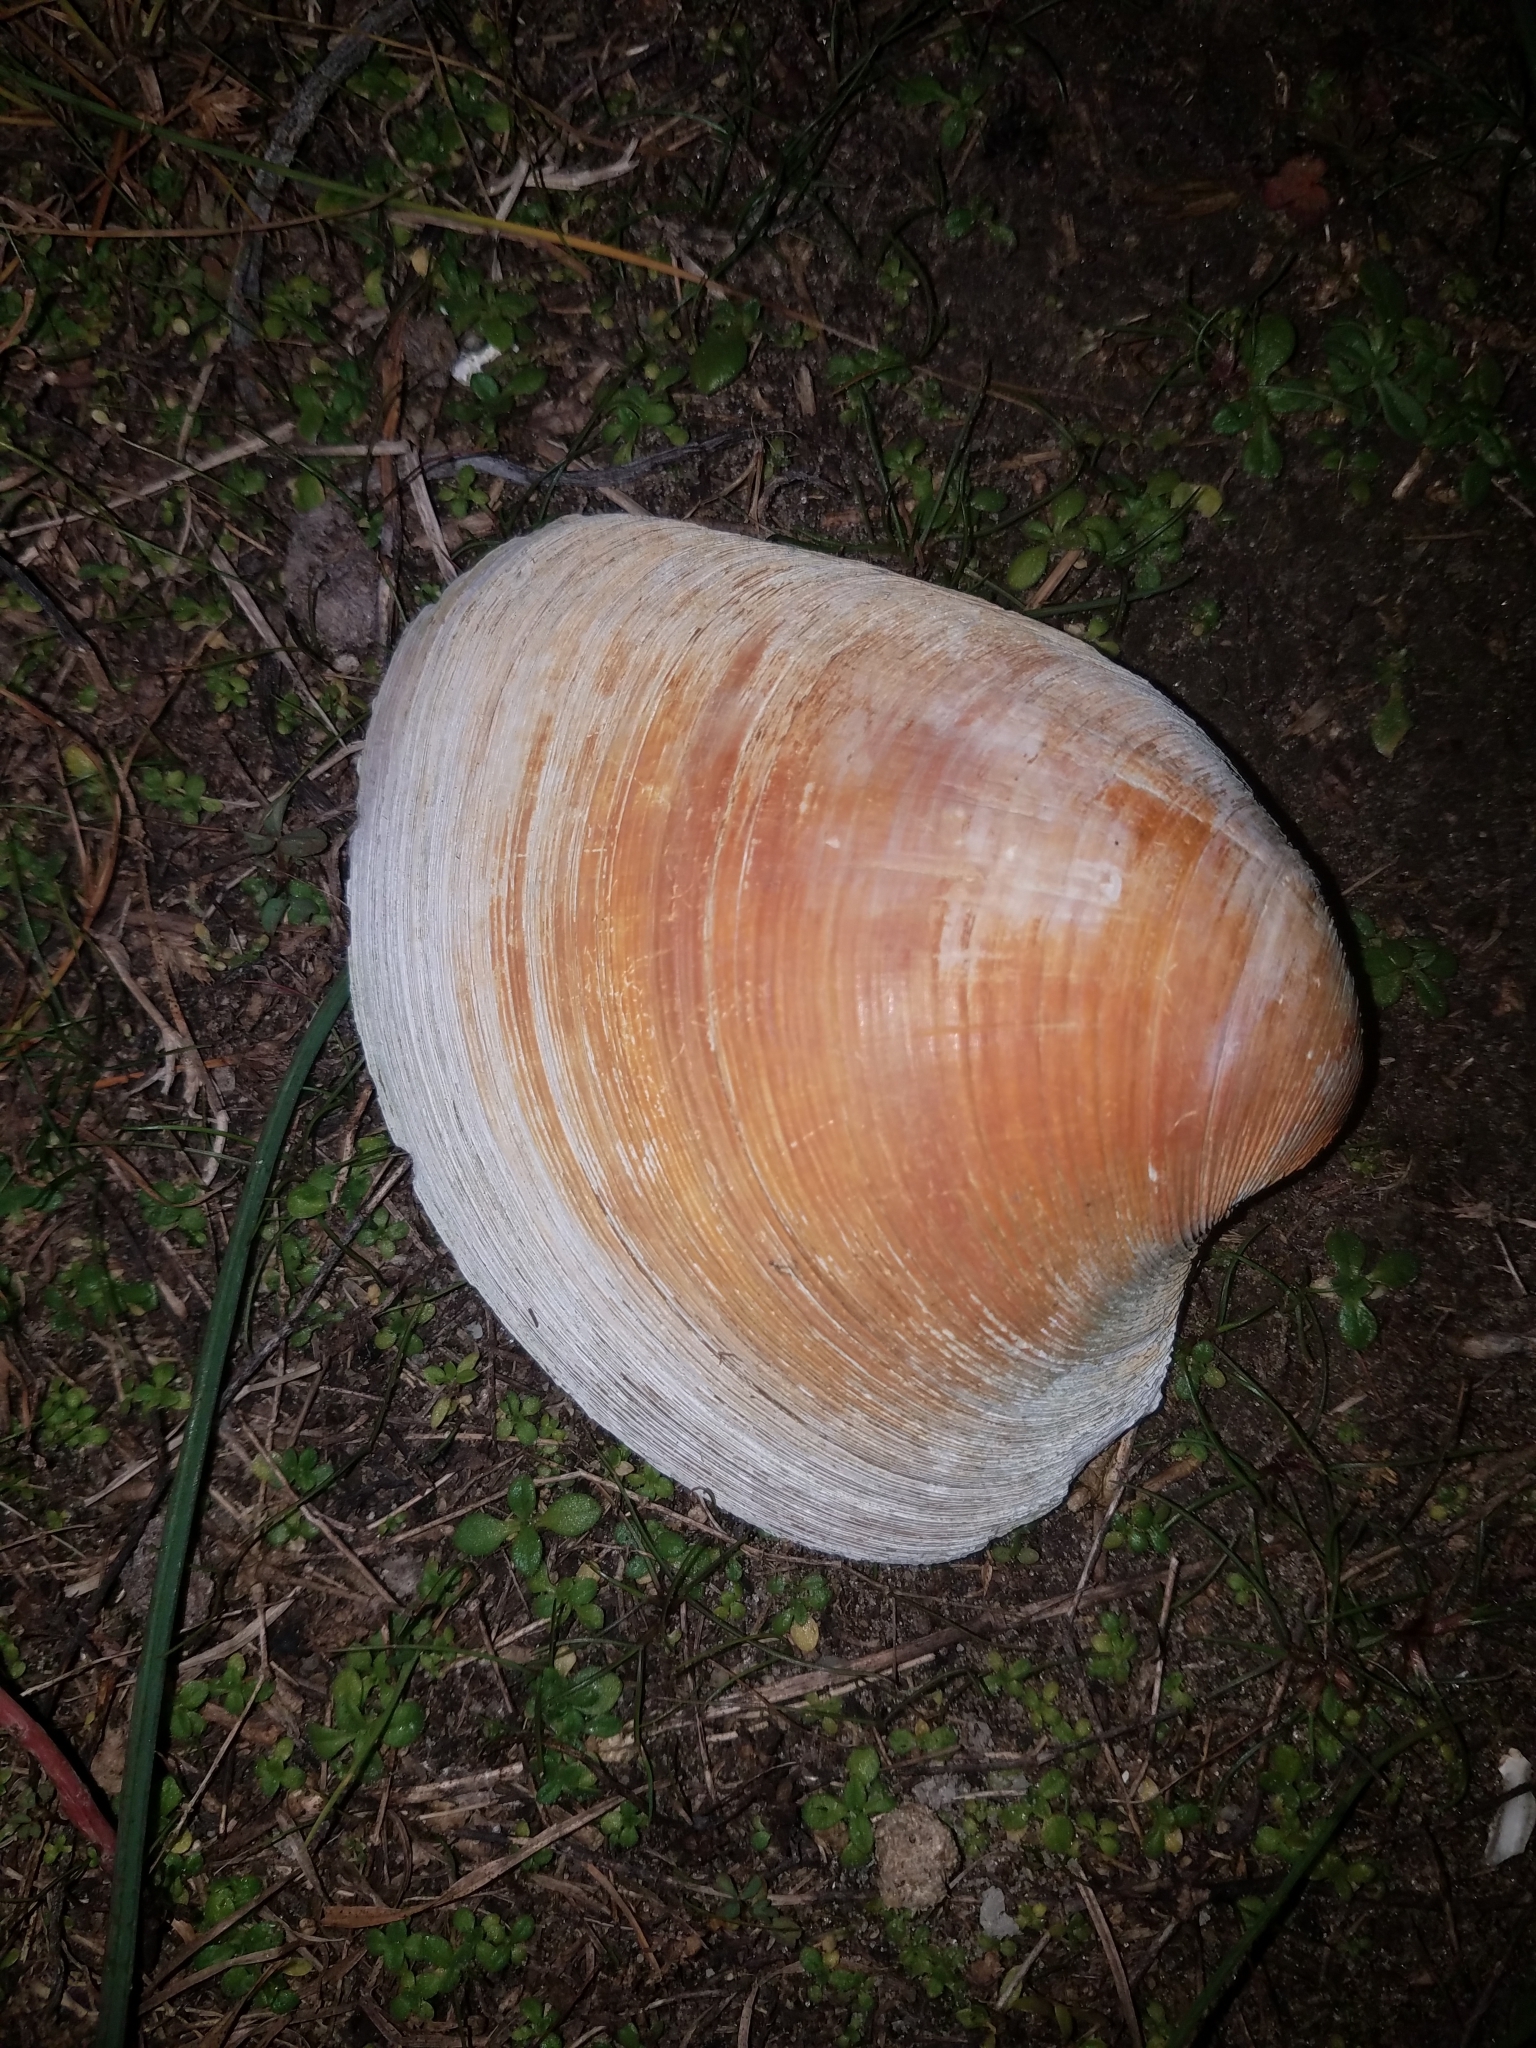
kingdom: Animalia
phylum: Mollusca
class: Bivalvia
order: Venerida
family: Veneridae
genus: Mercenaria
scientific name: Mercenaria mercenaria
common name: American hard-shelled clam
